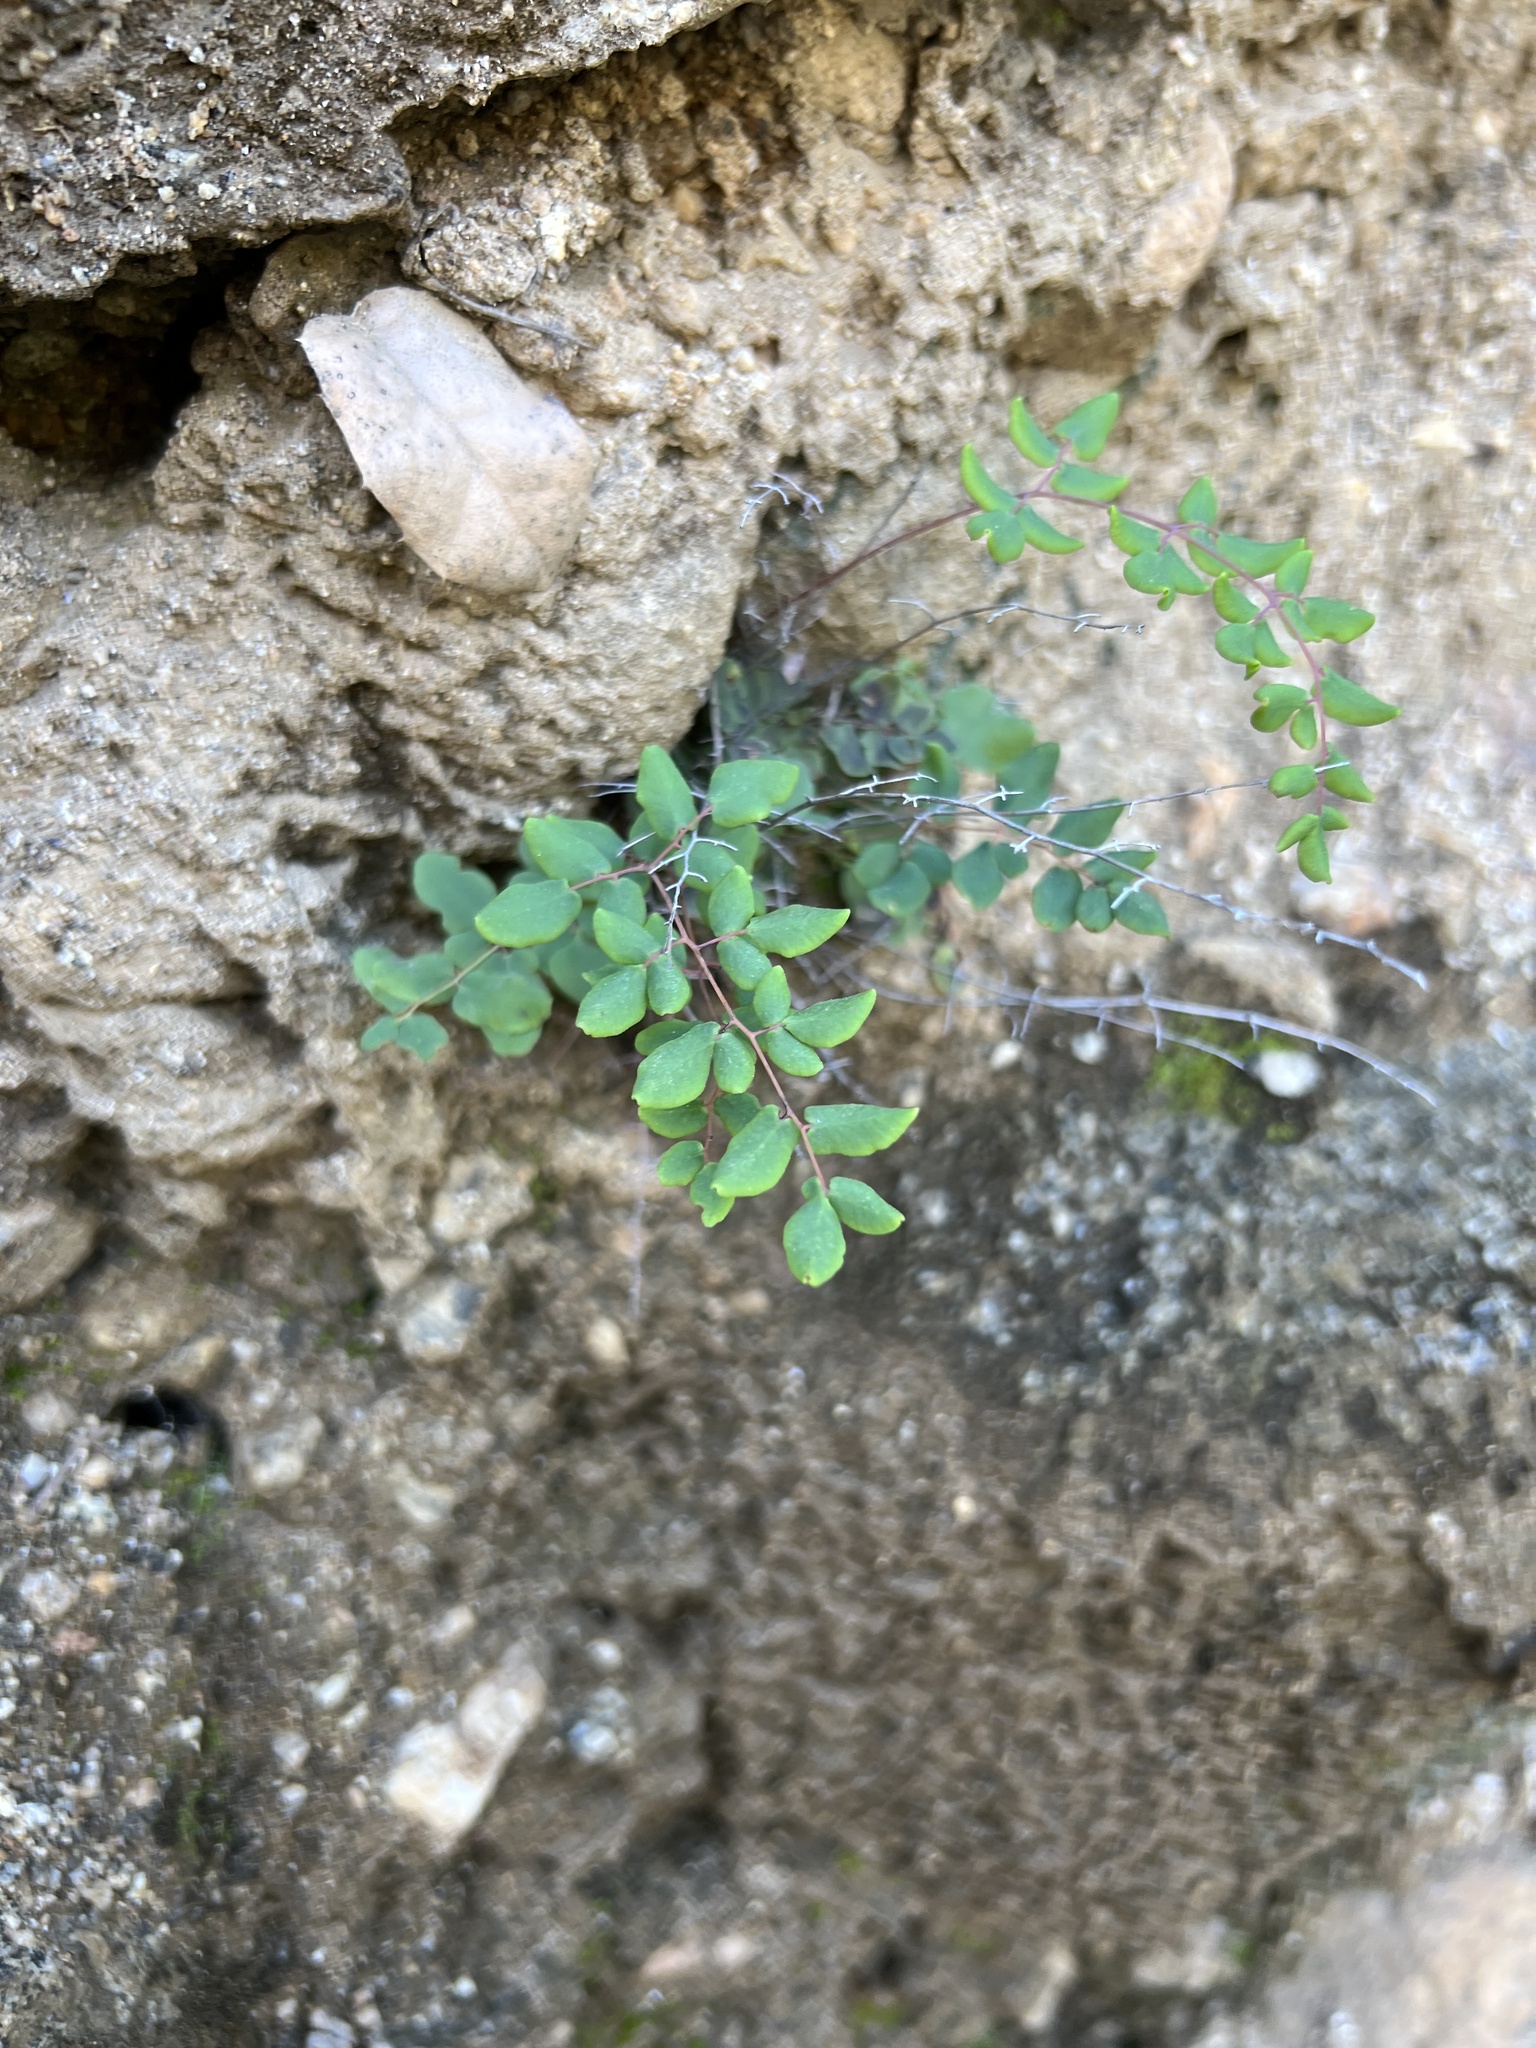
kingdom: Plantae
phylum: Tracheophyta
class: Polypodiopsida
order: Polypodiales
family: Pteridaceae
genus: Pellaea
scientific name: Pellaea andromedifolia
